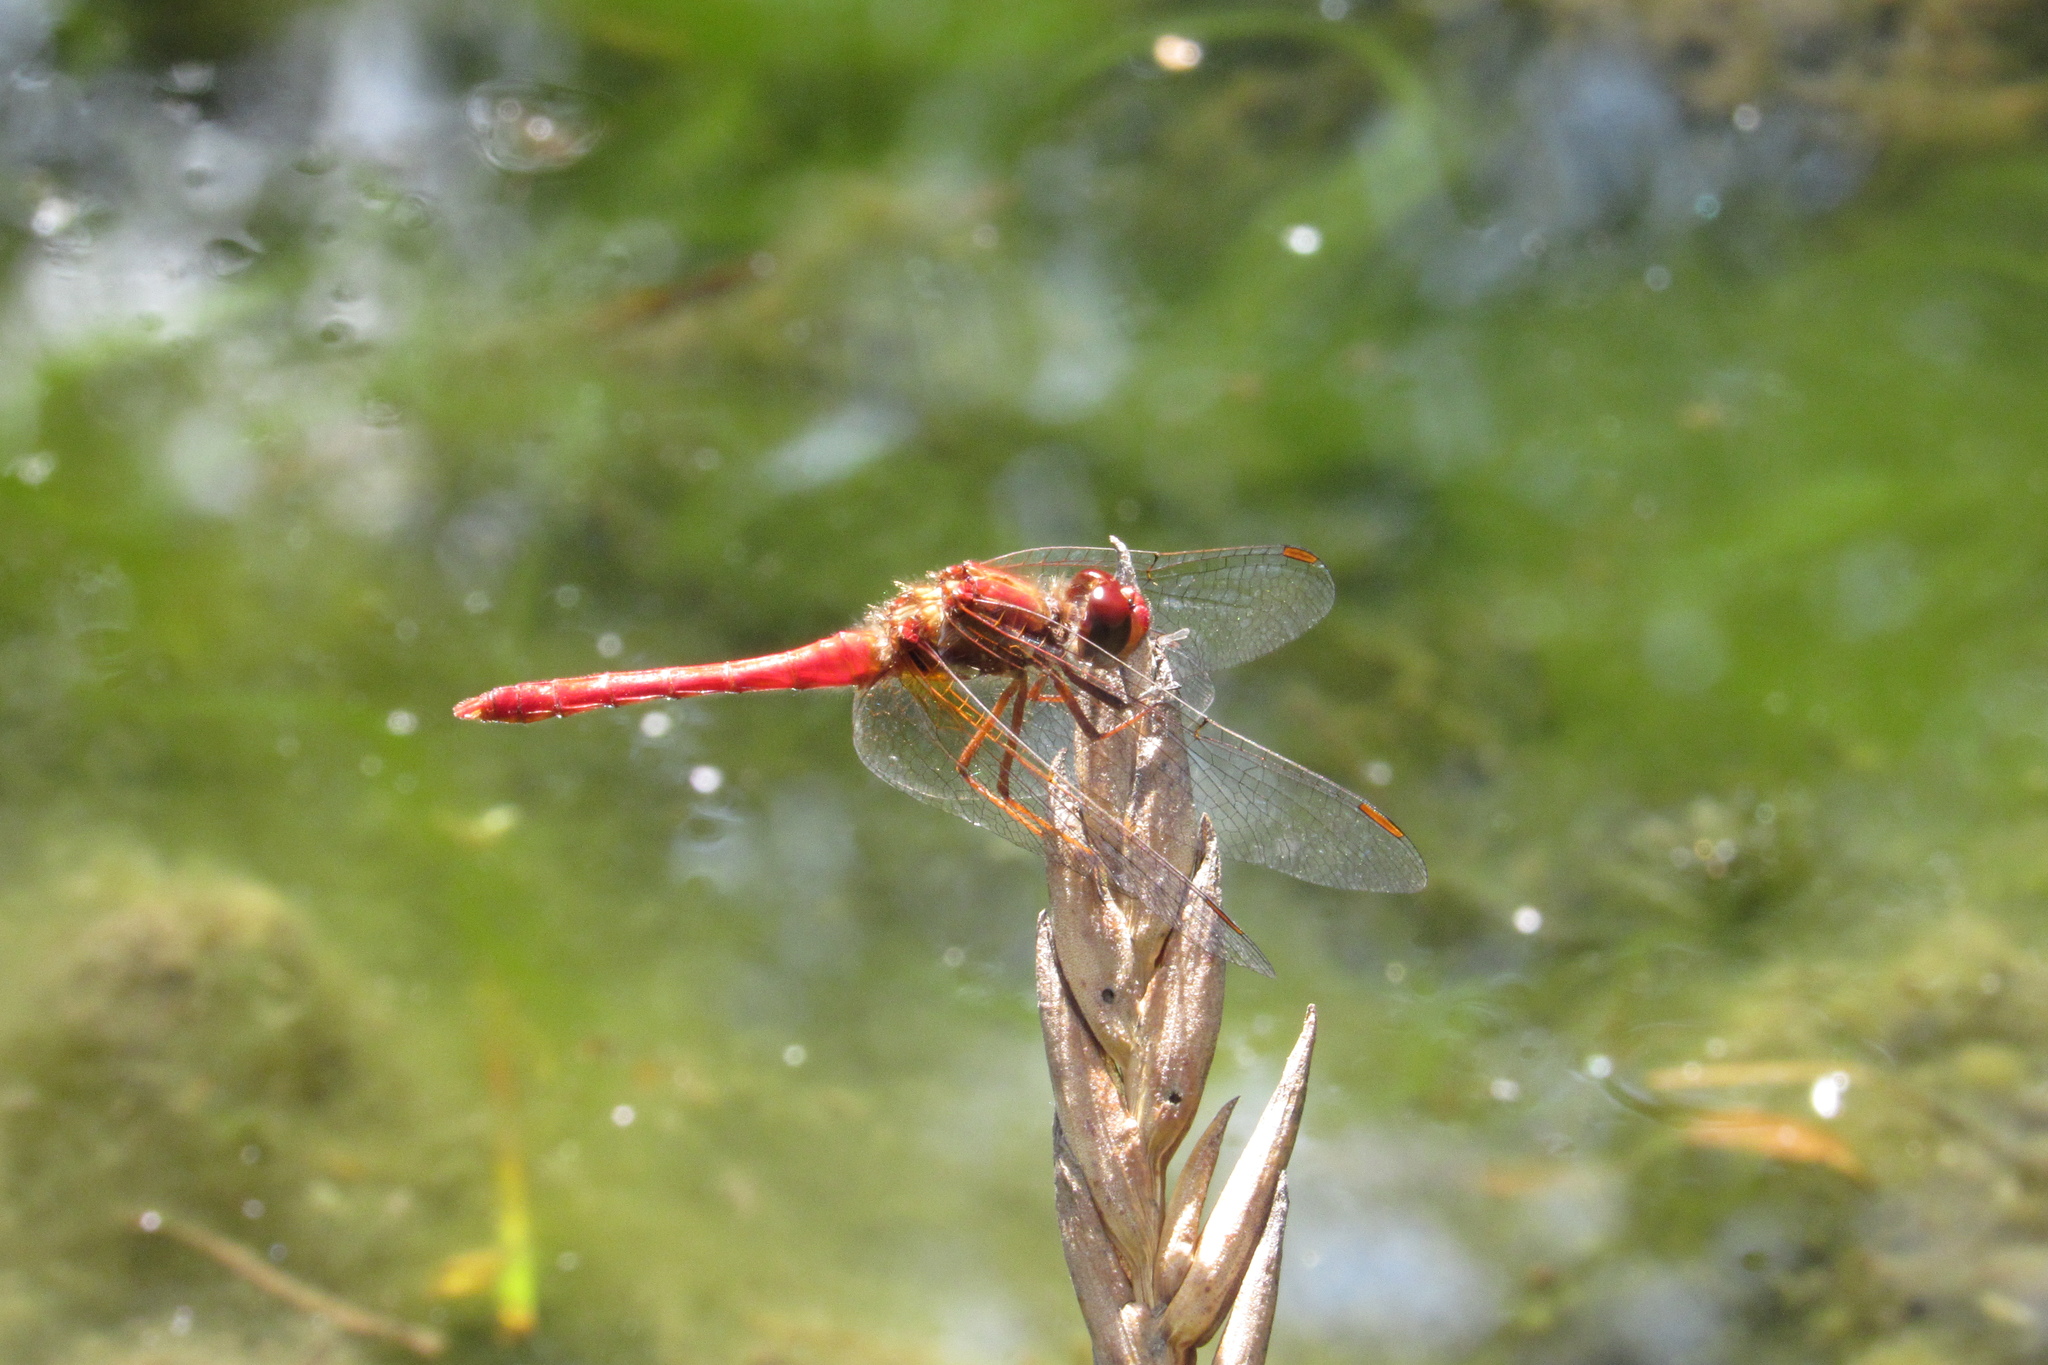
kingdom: Animalia
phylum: Arthropoda
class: Insecta
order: Odonata
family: Libellulidae
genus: Sympetrum
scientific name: Sympetrum gilvum
